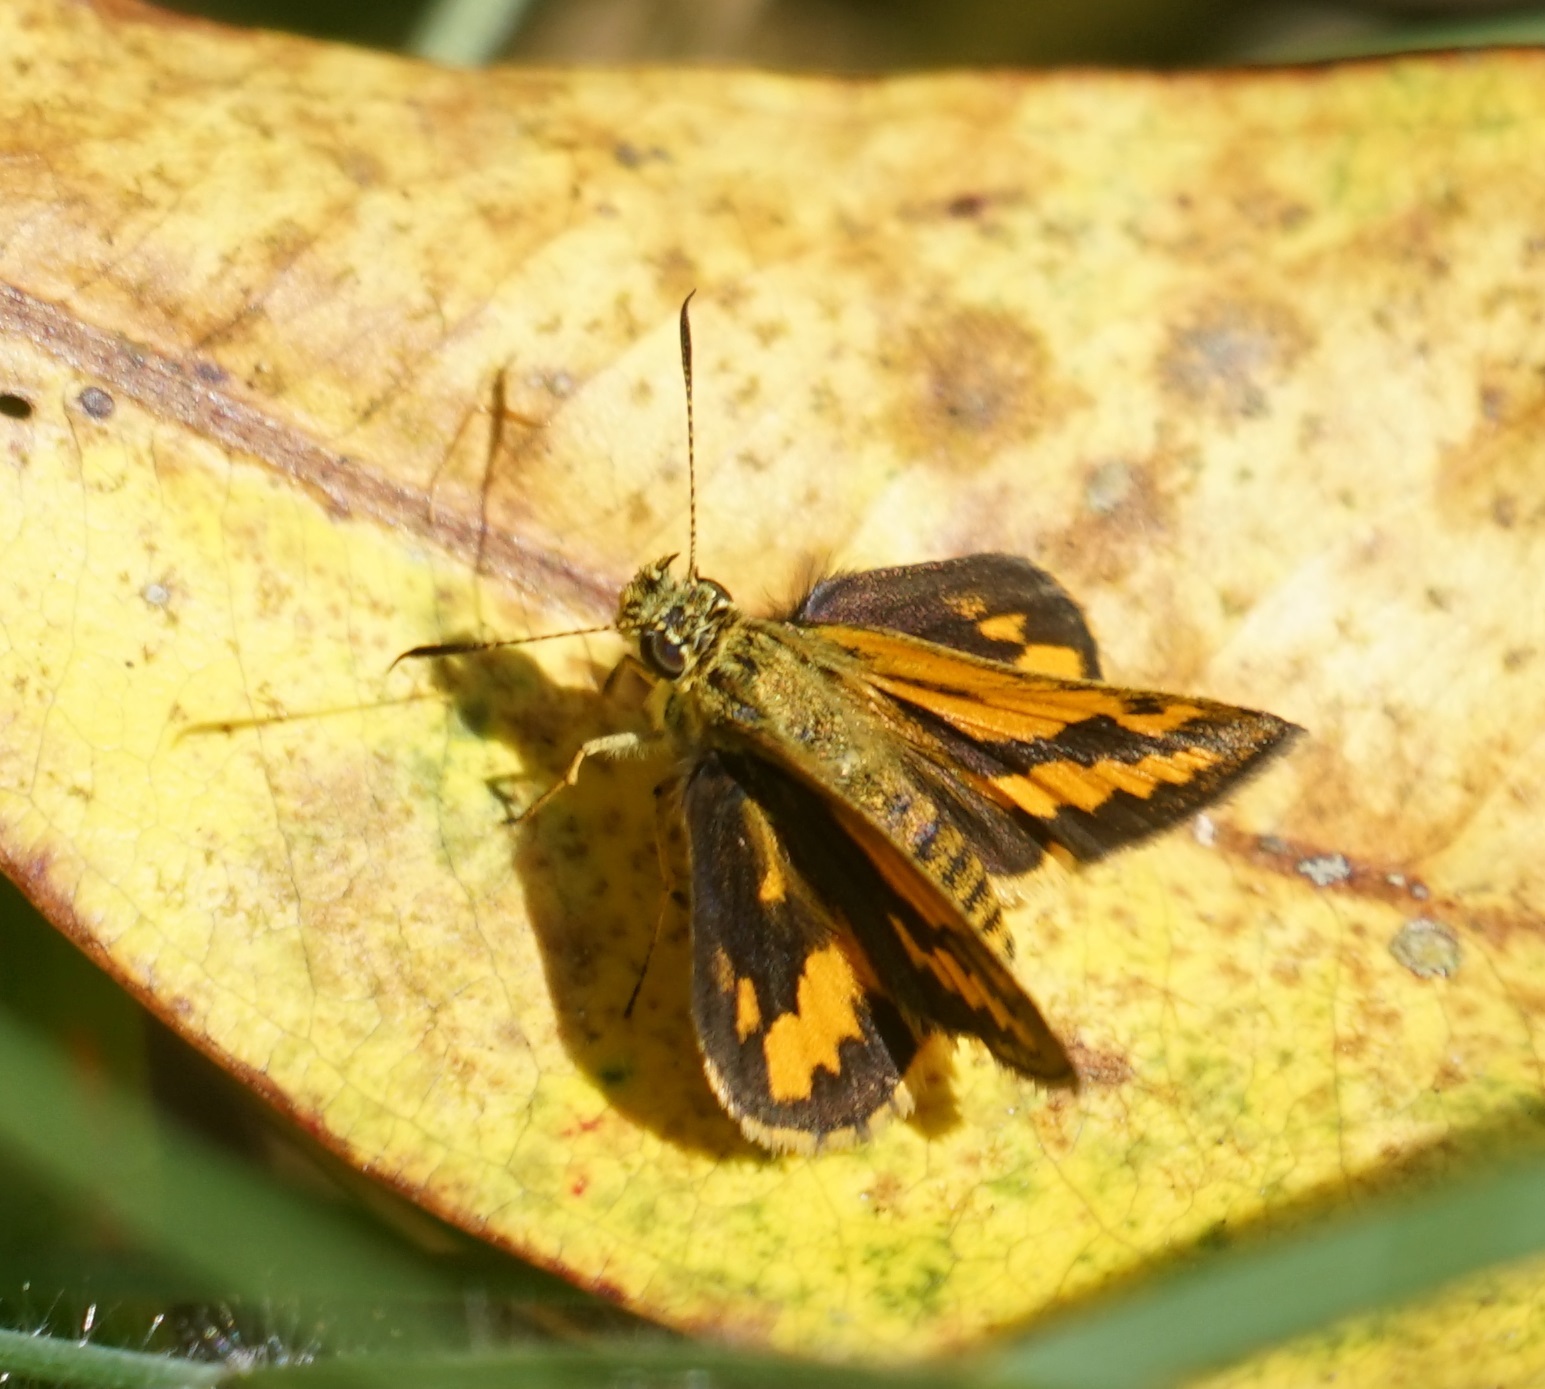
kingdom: Animalia
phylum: Arthropoda
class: Insecta
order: Lepidoptera
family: Hesperiidae
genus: Suniana
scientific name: Suniana sunias
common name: Wide-brand grass-dart
